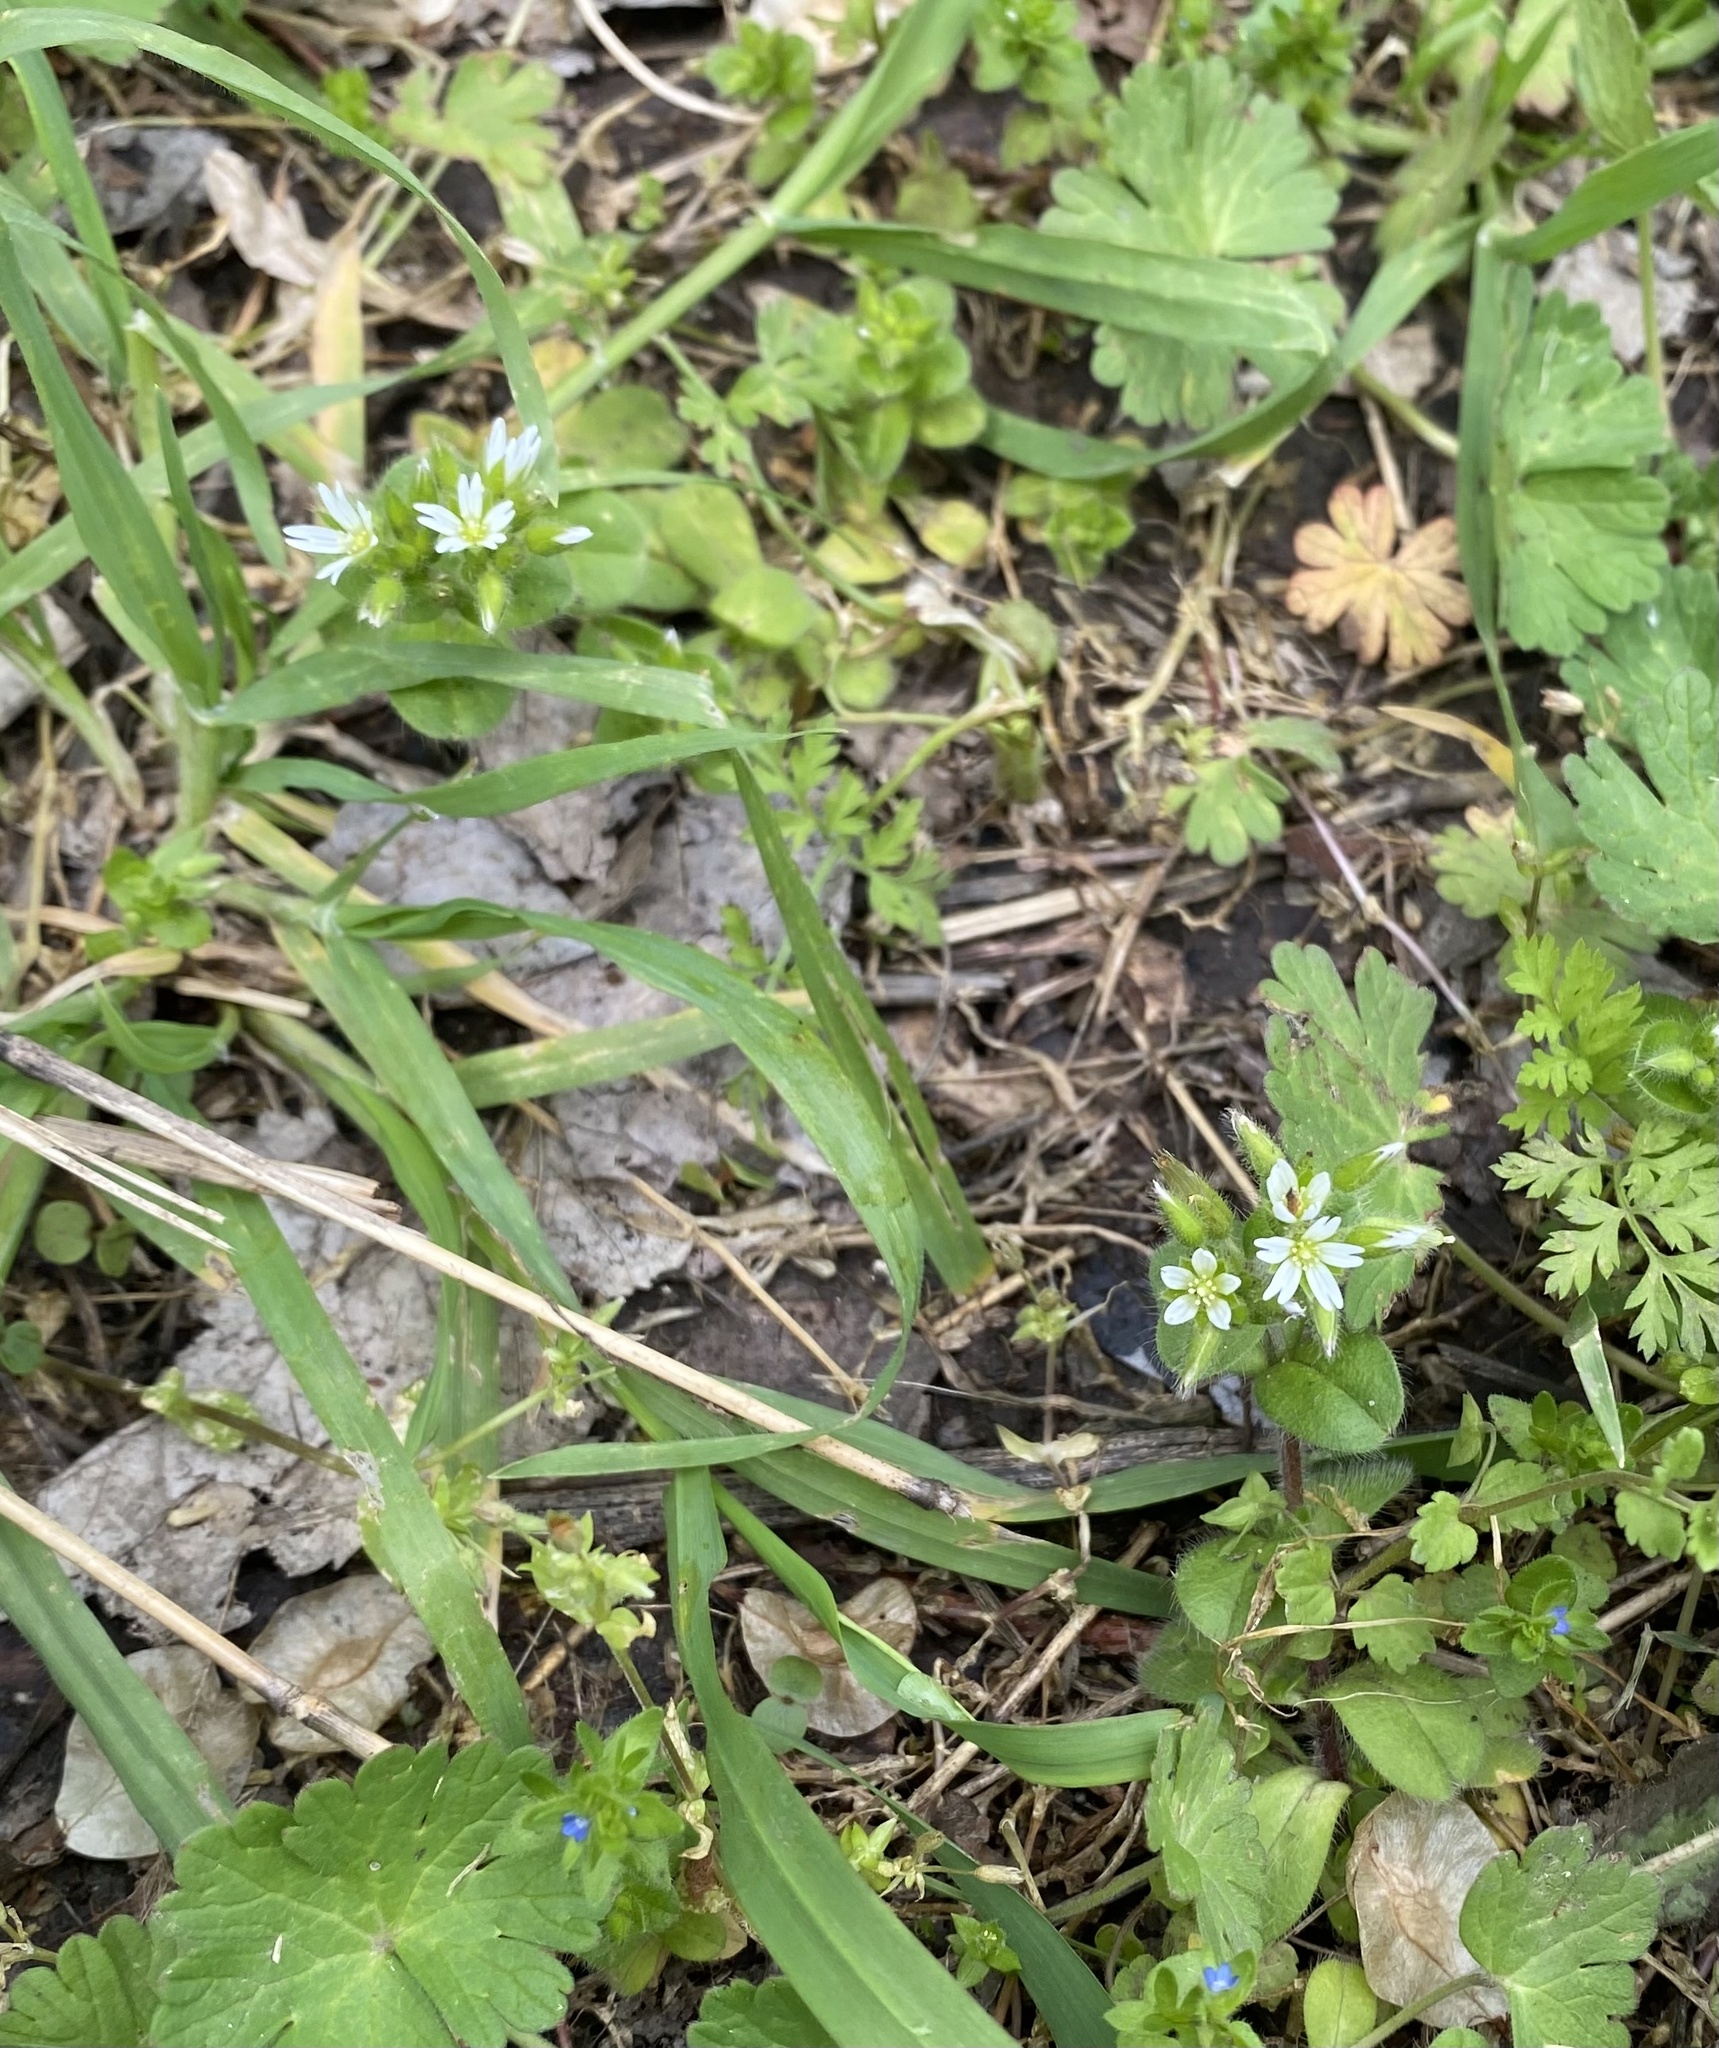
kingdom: Plantae
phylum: Tracheophyta
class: Magnoliopsida
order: Caryophyllales
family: Caryophyllaceae
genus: Cerastium
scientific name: Cerastium glomeratum
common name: Sticky chickweed
